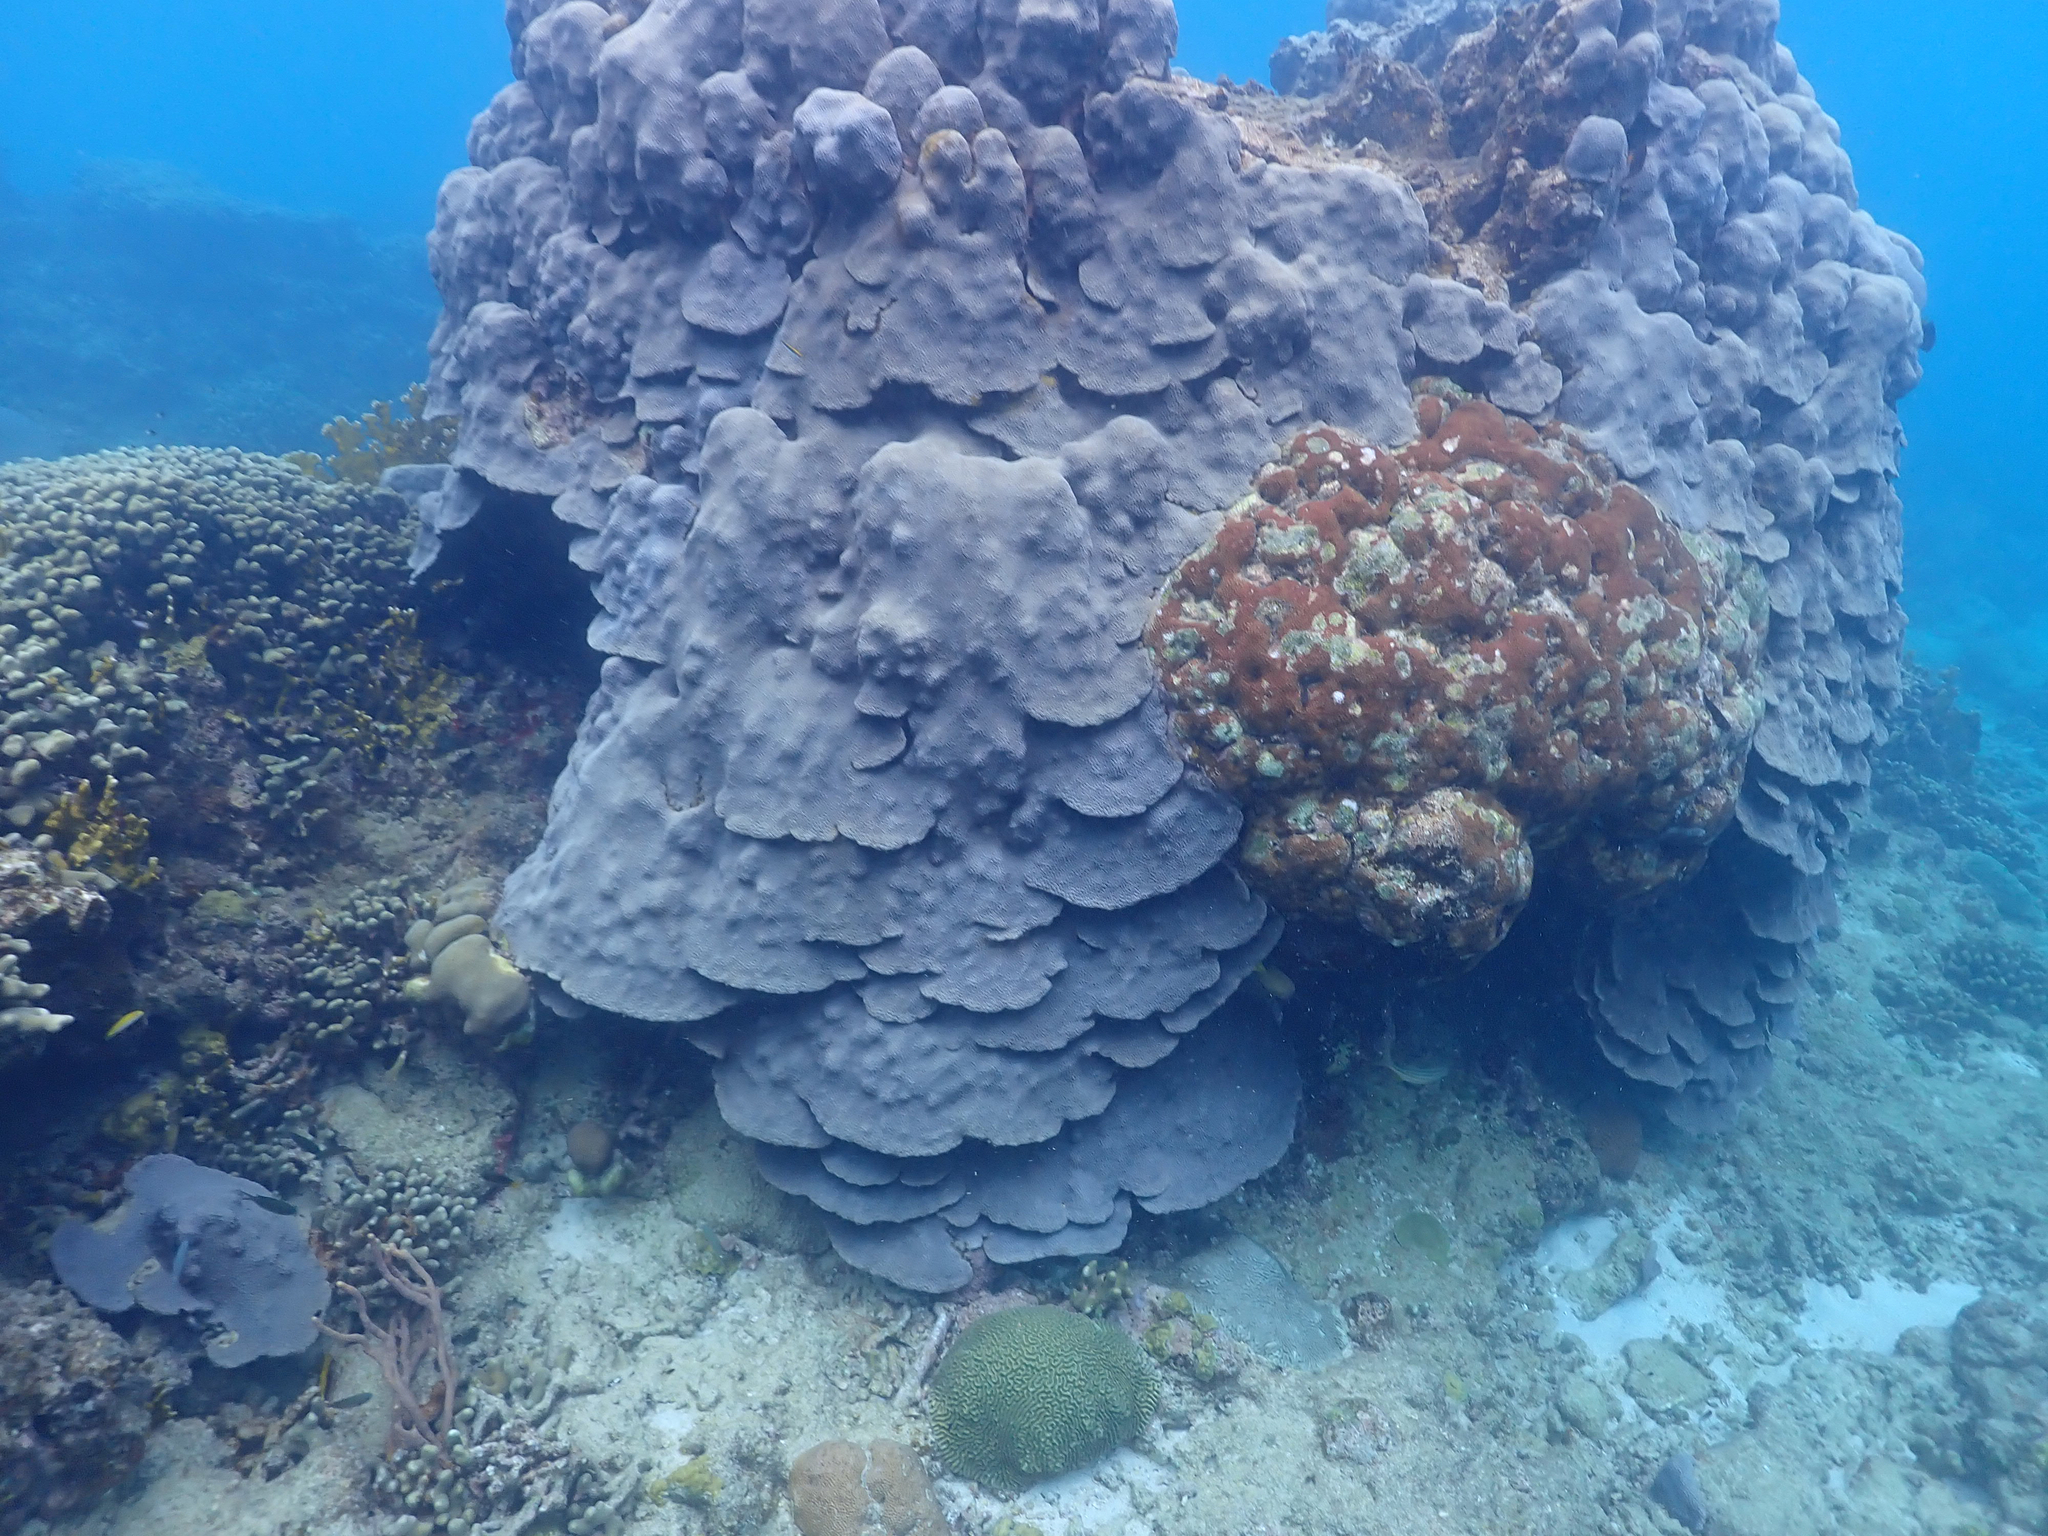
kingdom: Animalia
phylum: Cnidaria
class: Anthozoa
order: Scleractinia
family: Merulinidae
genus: Orbicella
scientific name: Orbicella faveolata
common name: Mountainous star coral
